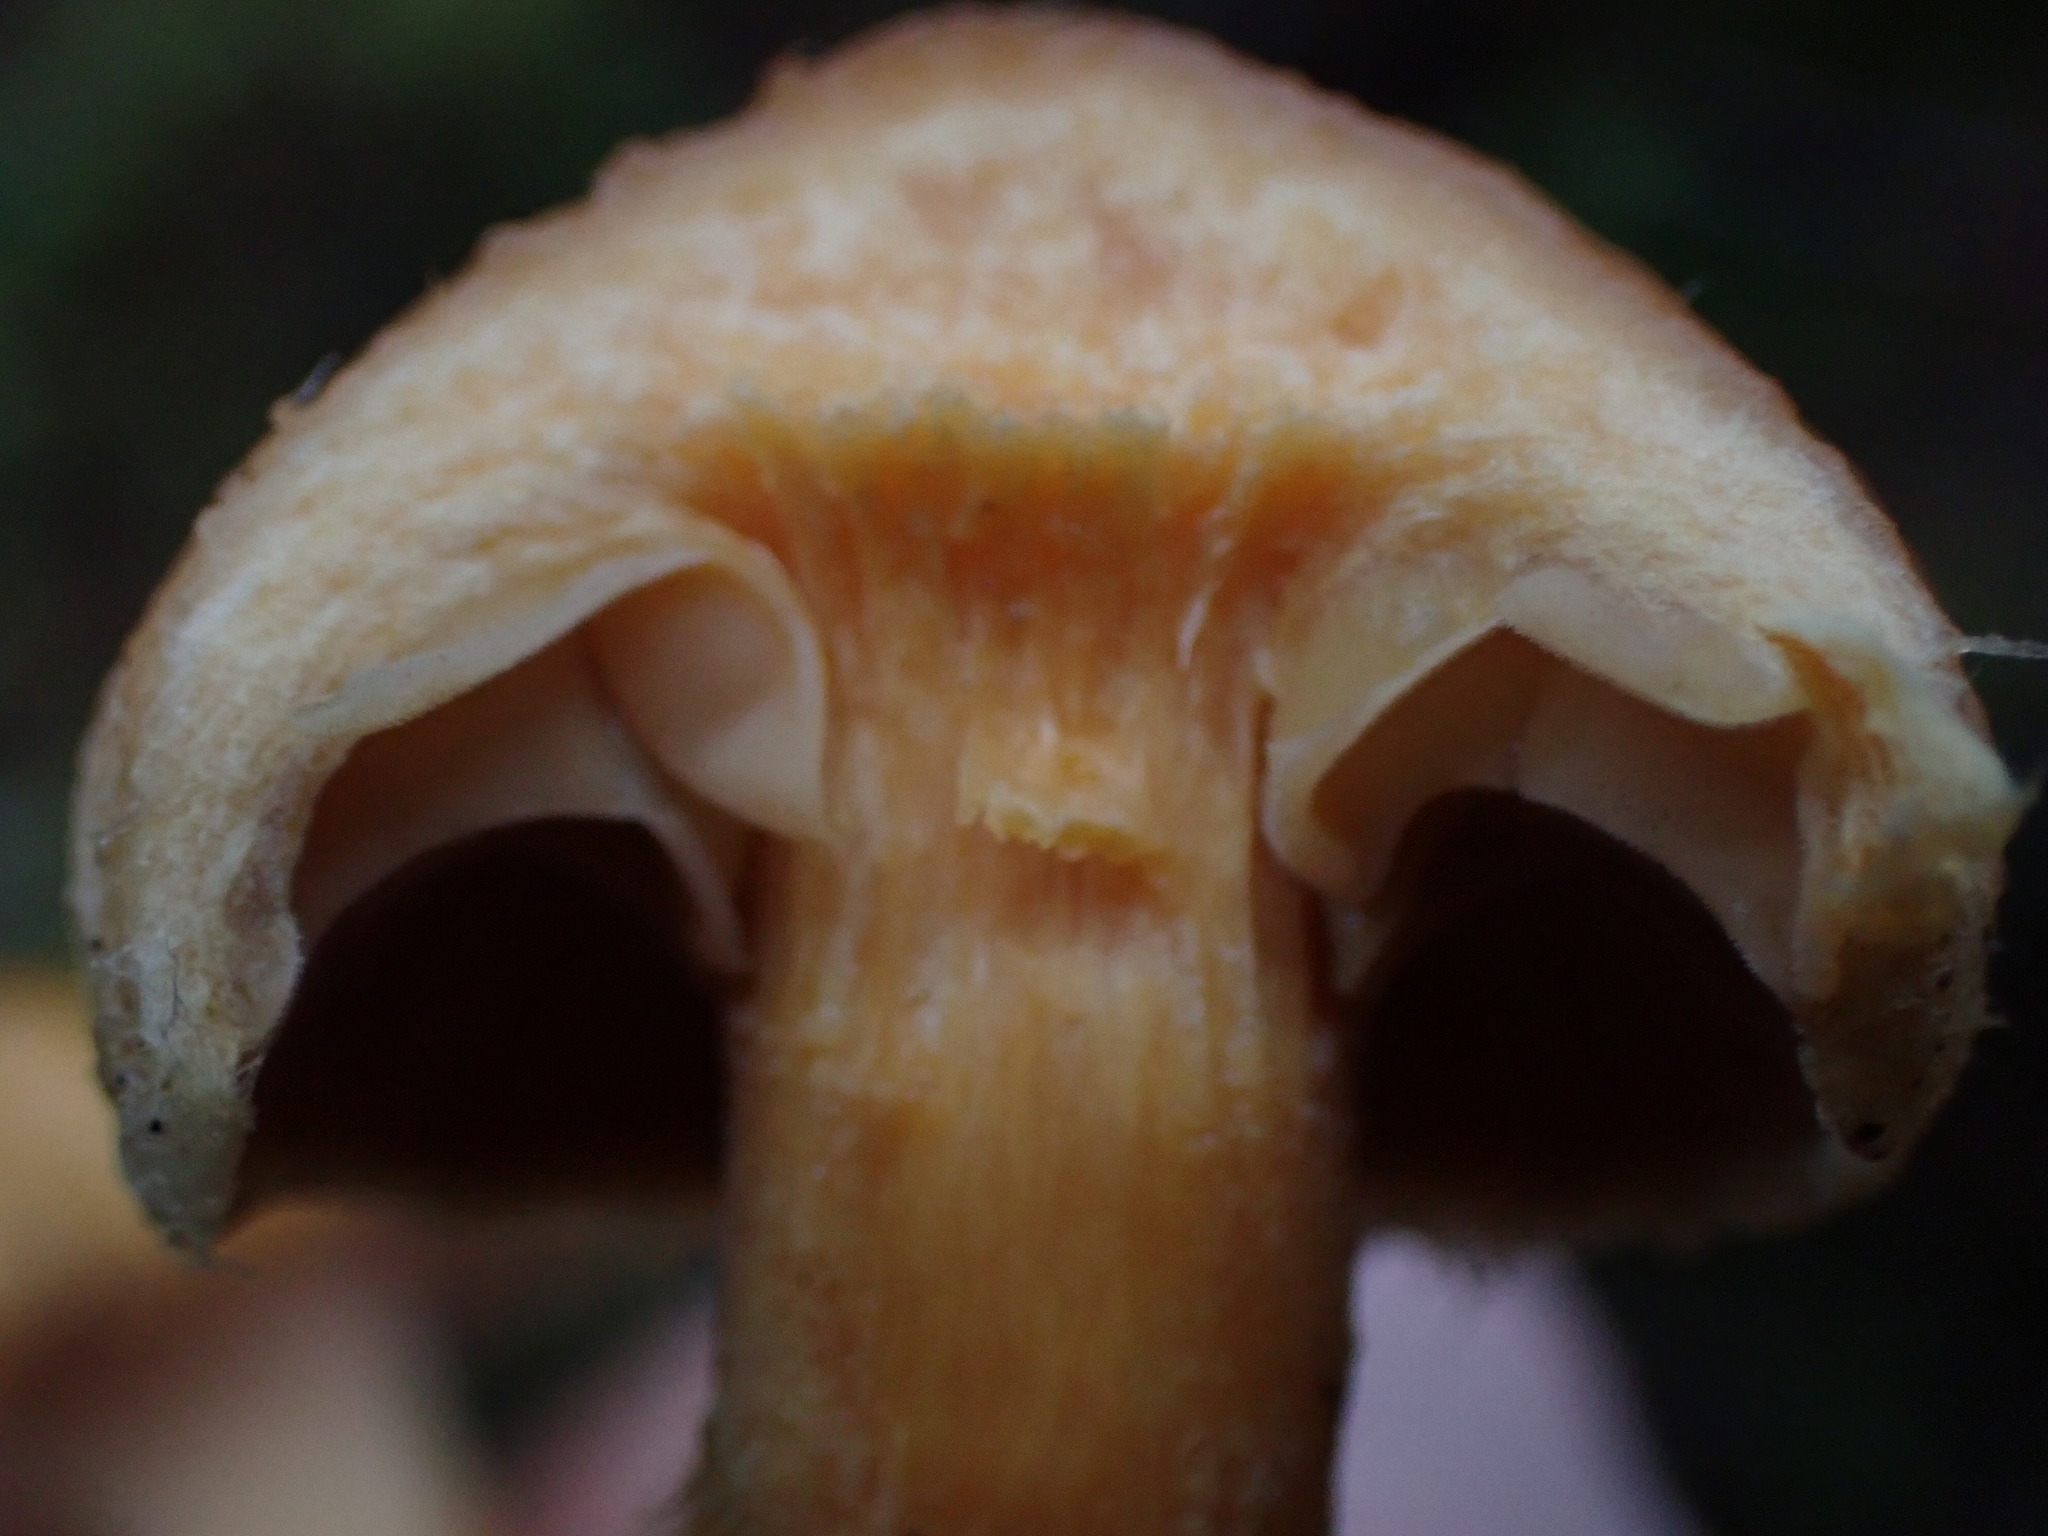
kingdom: Fungi
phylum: Basidiomycota
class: Agaricomycetes
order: Boletales
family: Gomphidiaceae
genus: Chroogomphus
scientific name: Chroogomphus tomentosus
